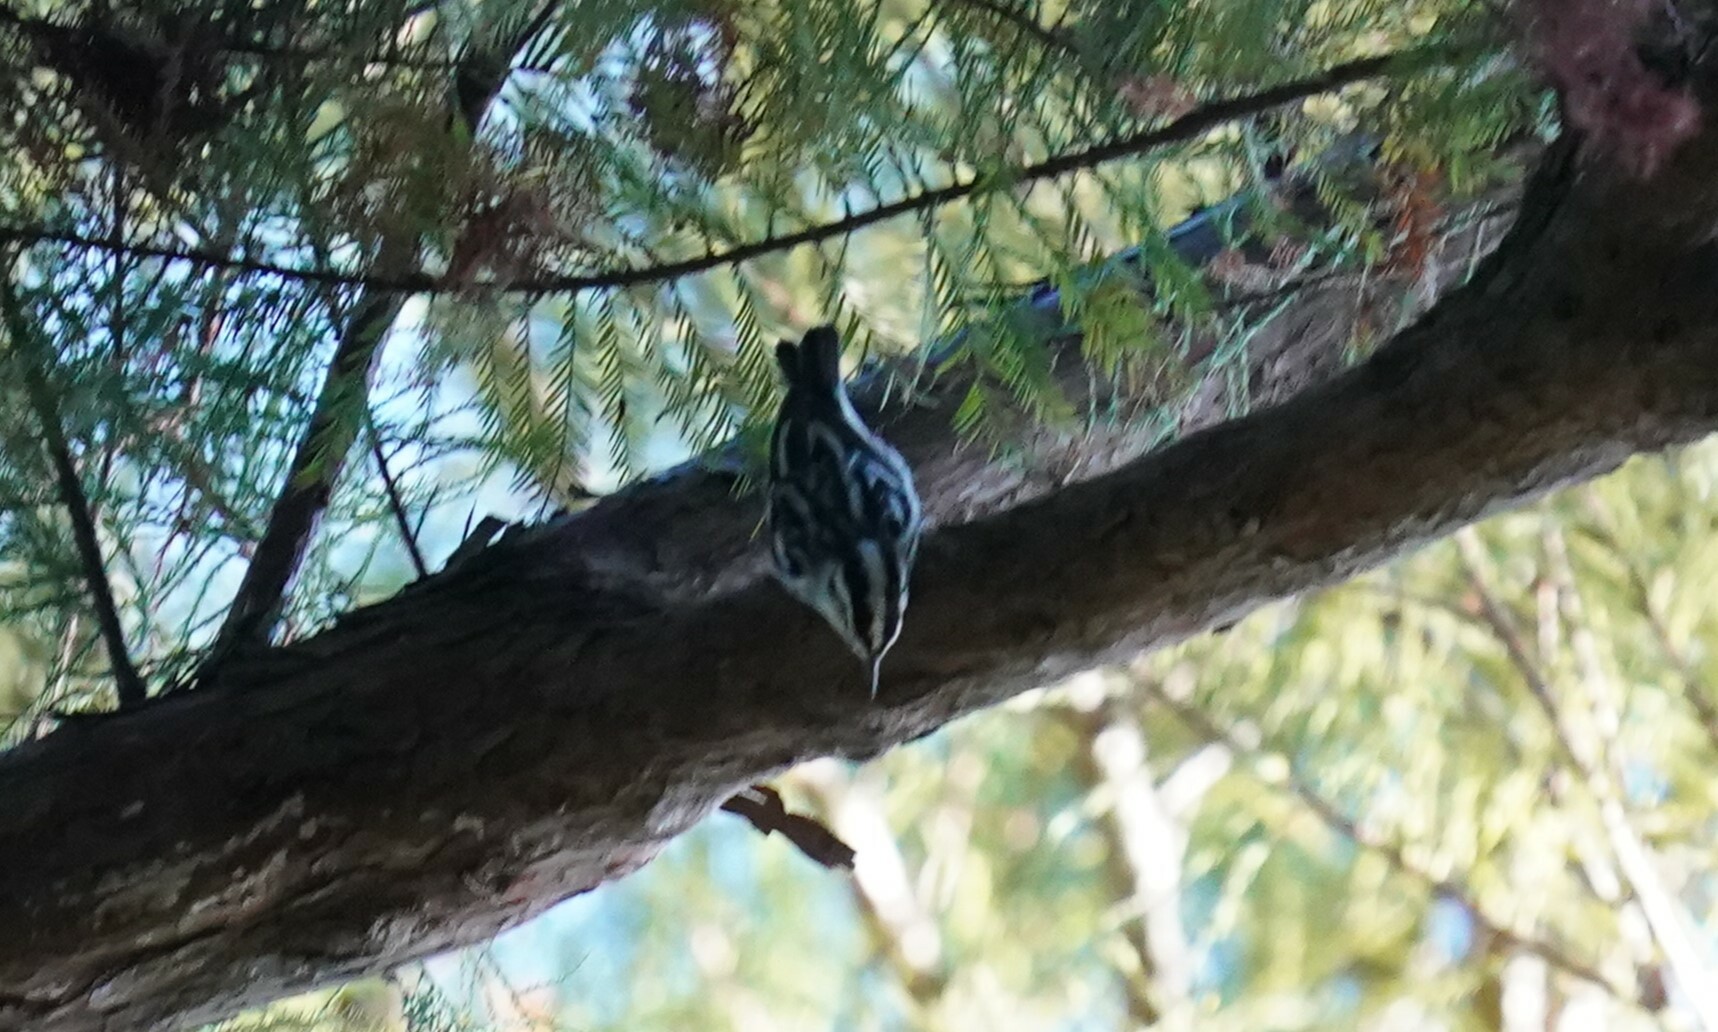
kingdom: Animalia
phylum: Chordata
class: Aves
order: Passeriformes
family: Parulidae
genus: Mniotilta
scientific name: Mniotilta varia
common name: Black-and-white warbler
